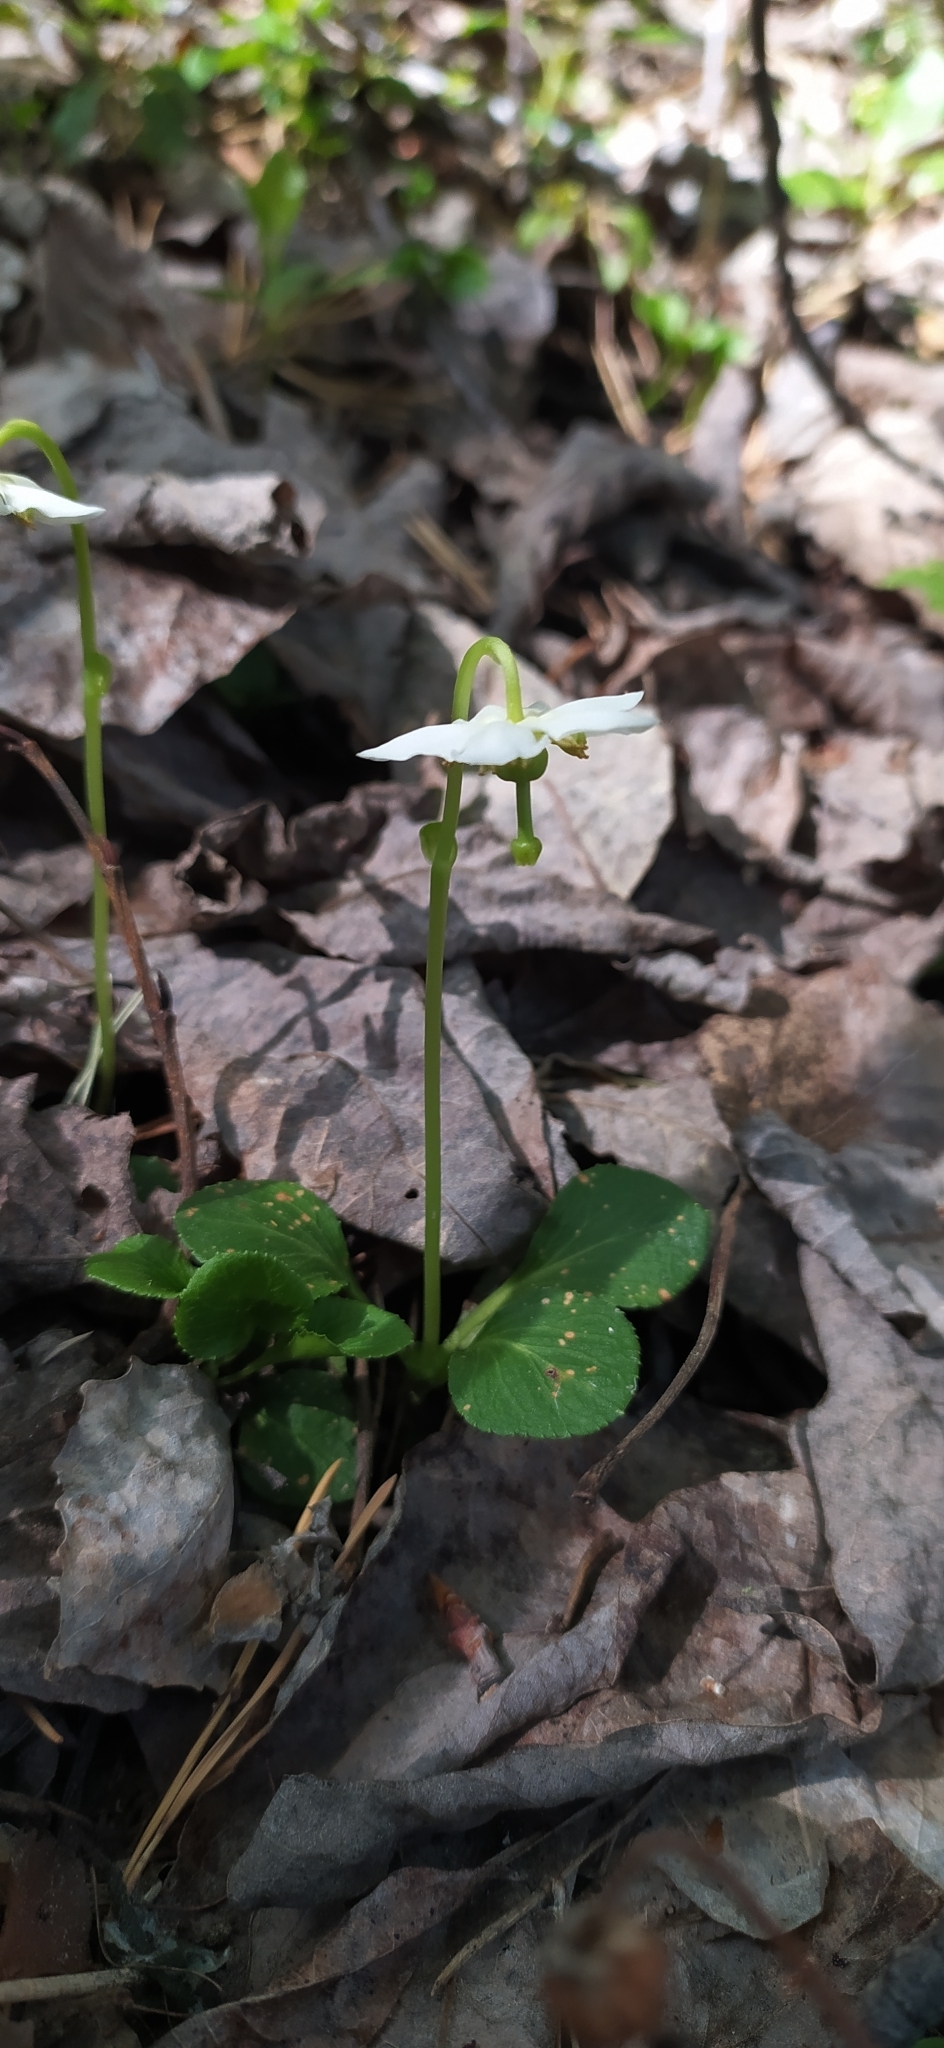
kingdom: Plantae
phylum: Tracheophyta
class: Magnoliopsida
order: Ericales
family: Ericaceae
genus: Moneses
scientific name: Moneses uniflora
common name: One-flowered wintergreen
